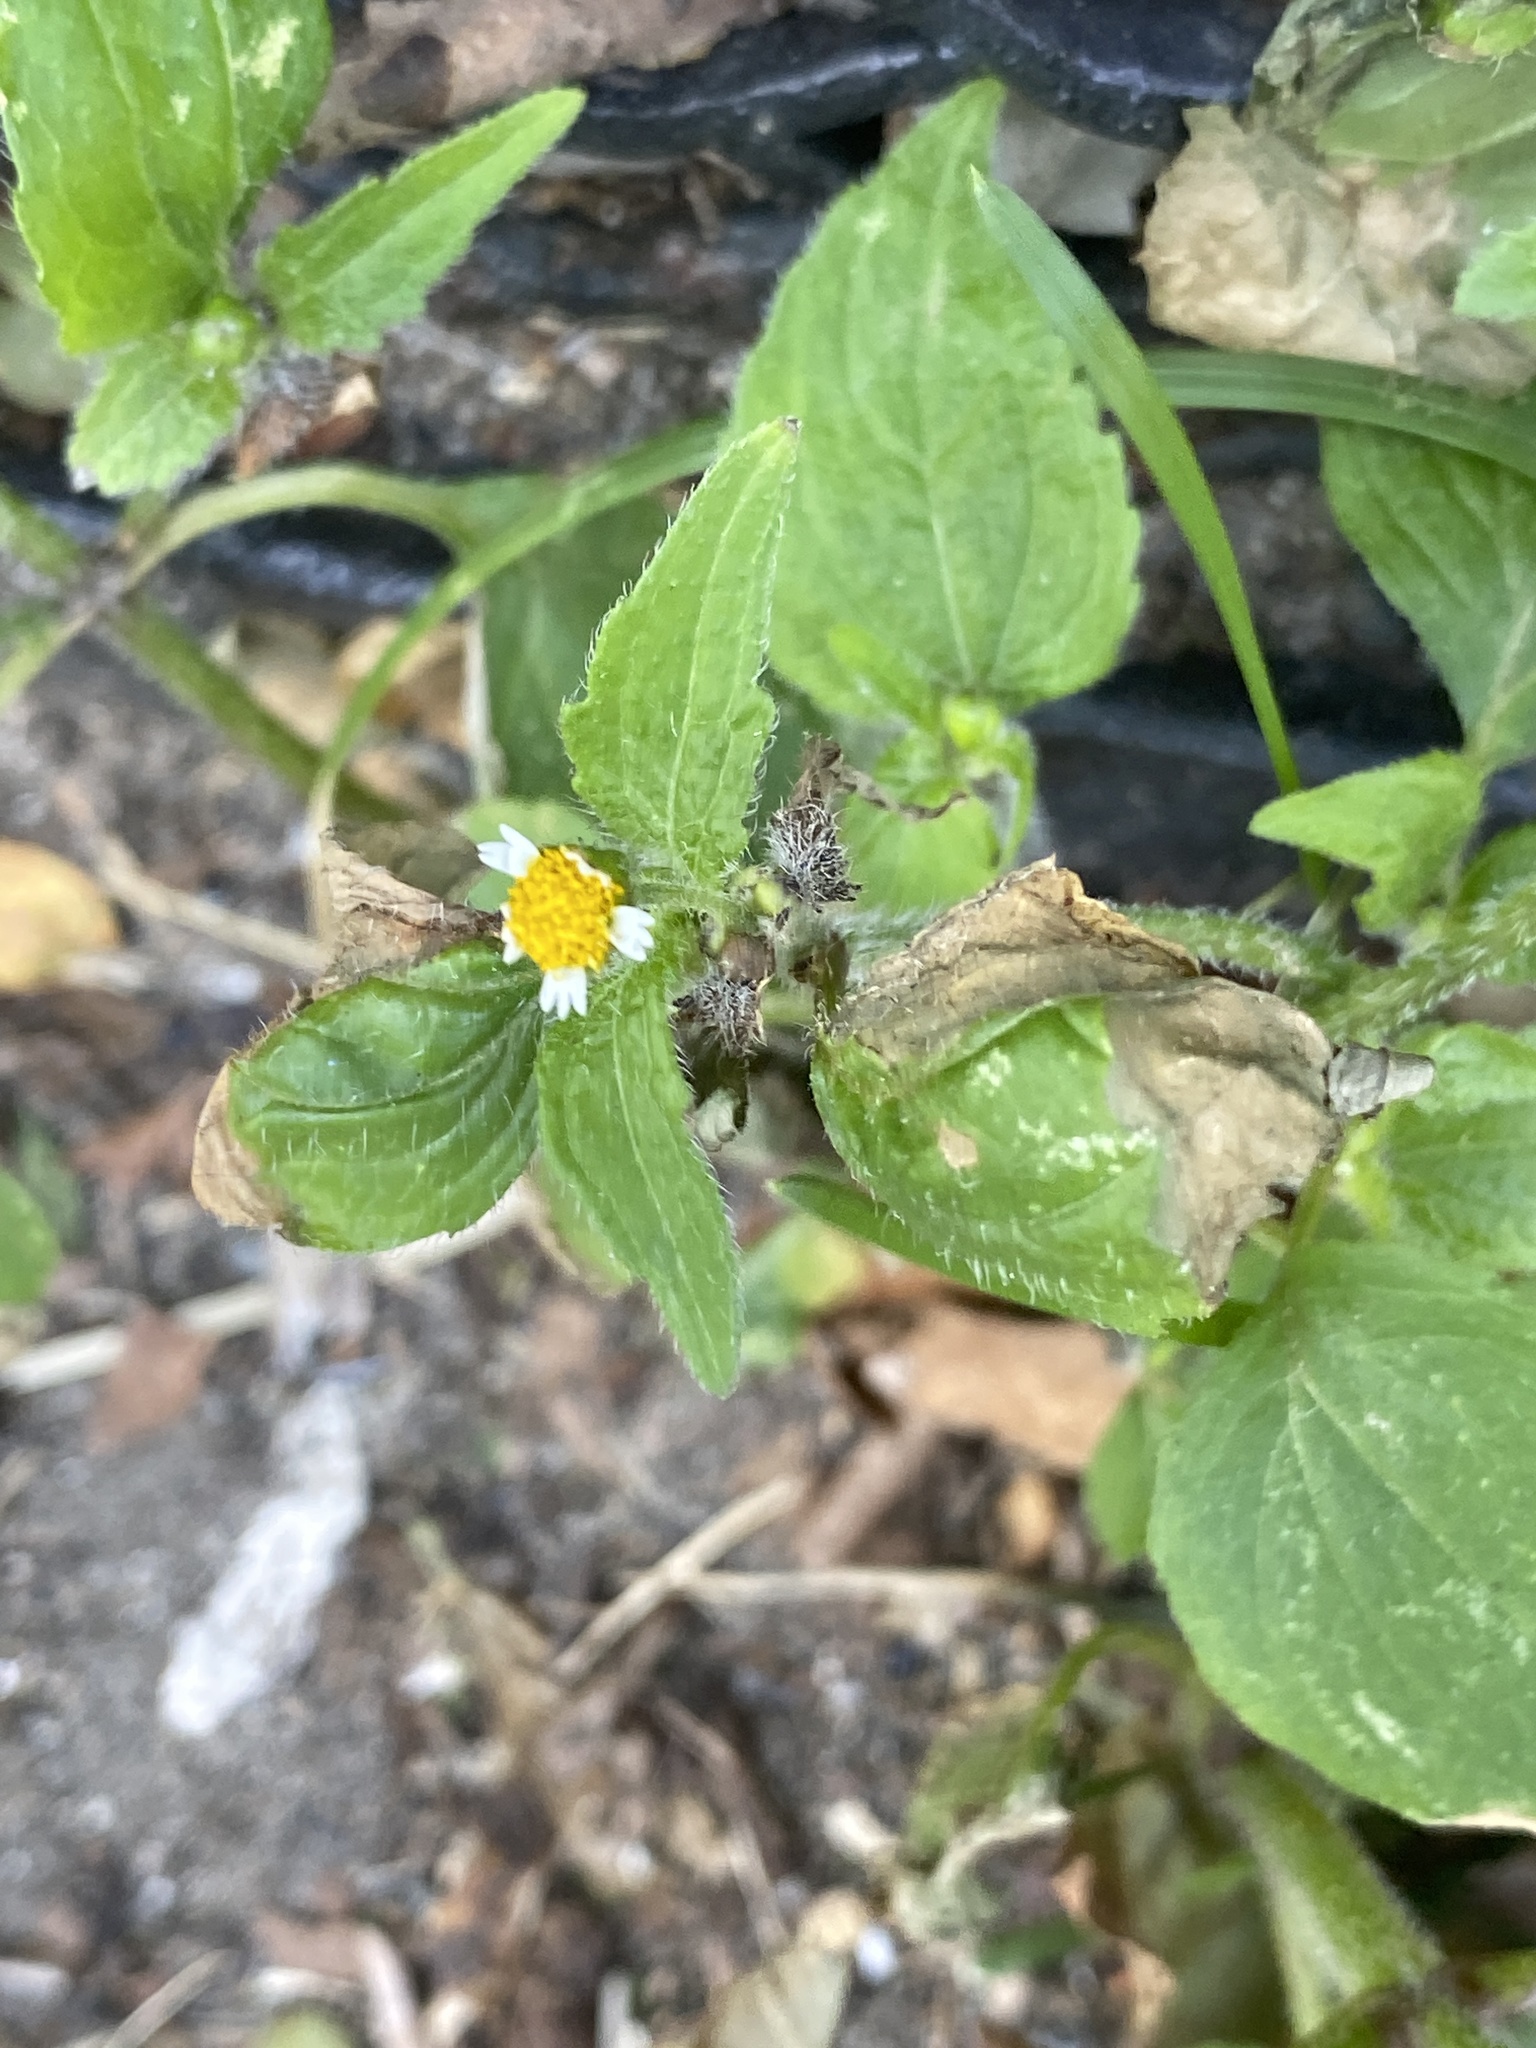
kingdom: Plantae
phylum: Tracheophyta
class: Magnoliopsida
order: Asterales
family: Asteraceae
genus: Galinsoga
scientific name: Galinsoga quadriradiata
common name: Shaggy soldier
